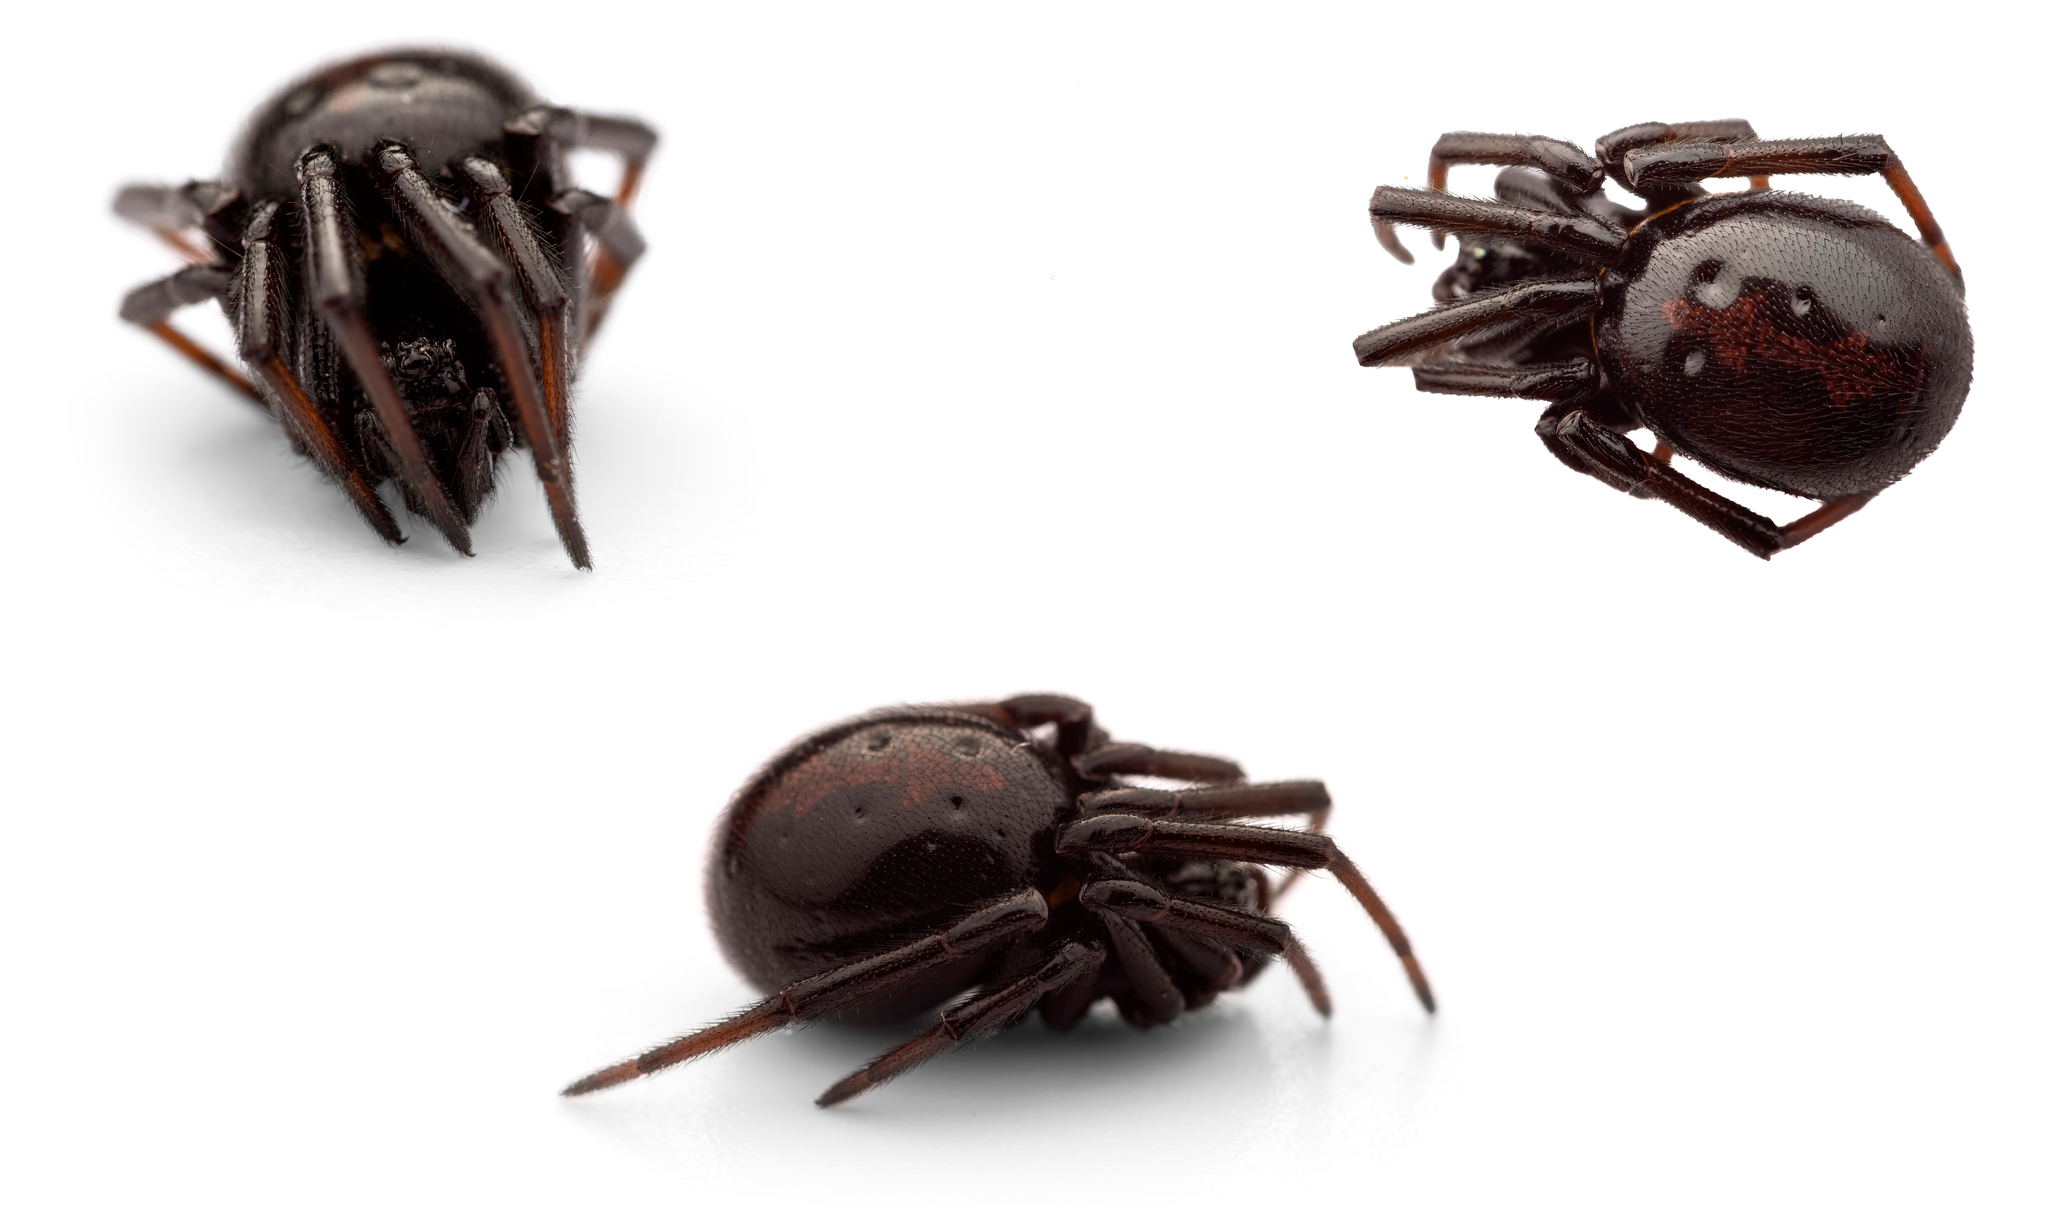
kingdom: Animalia
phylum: Arthropoda
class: Arachnida
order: Araneae
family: Theridiidae
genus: Steatoda
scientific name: Steatoda paykulliana
